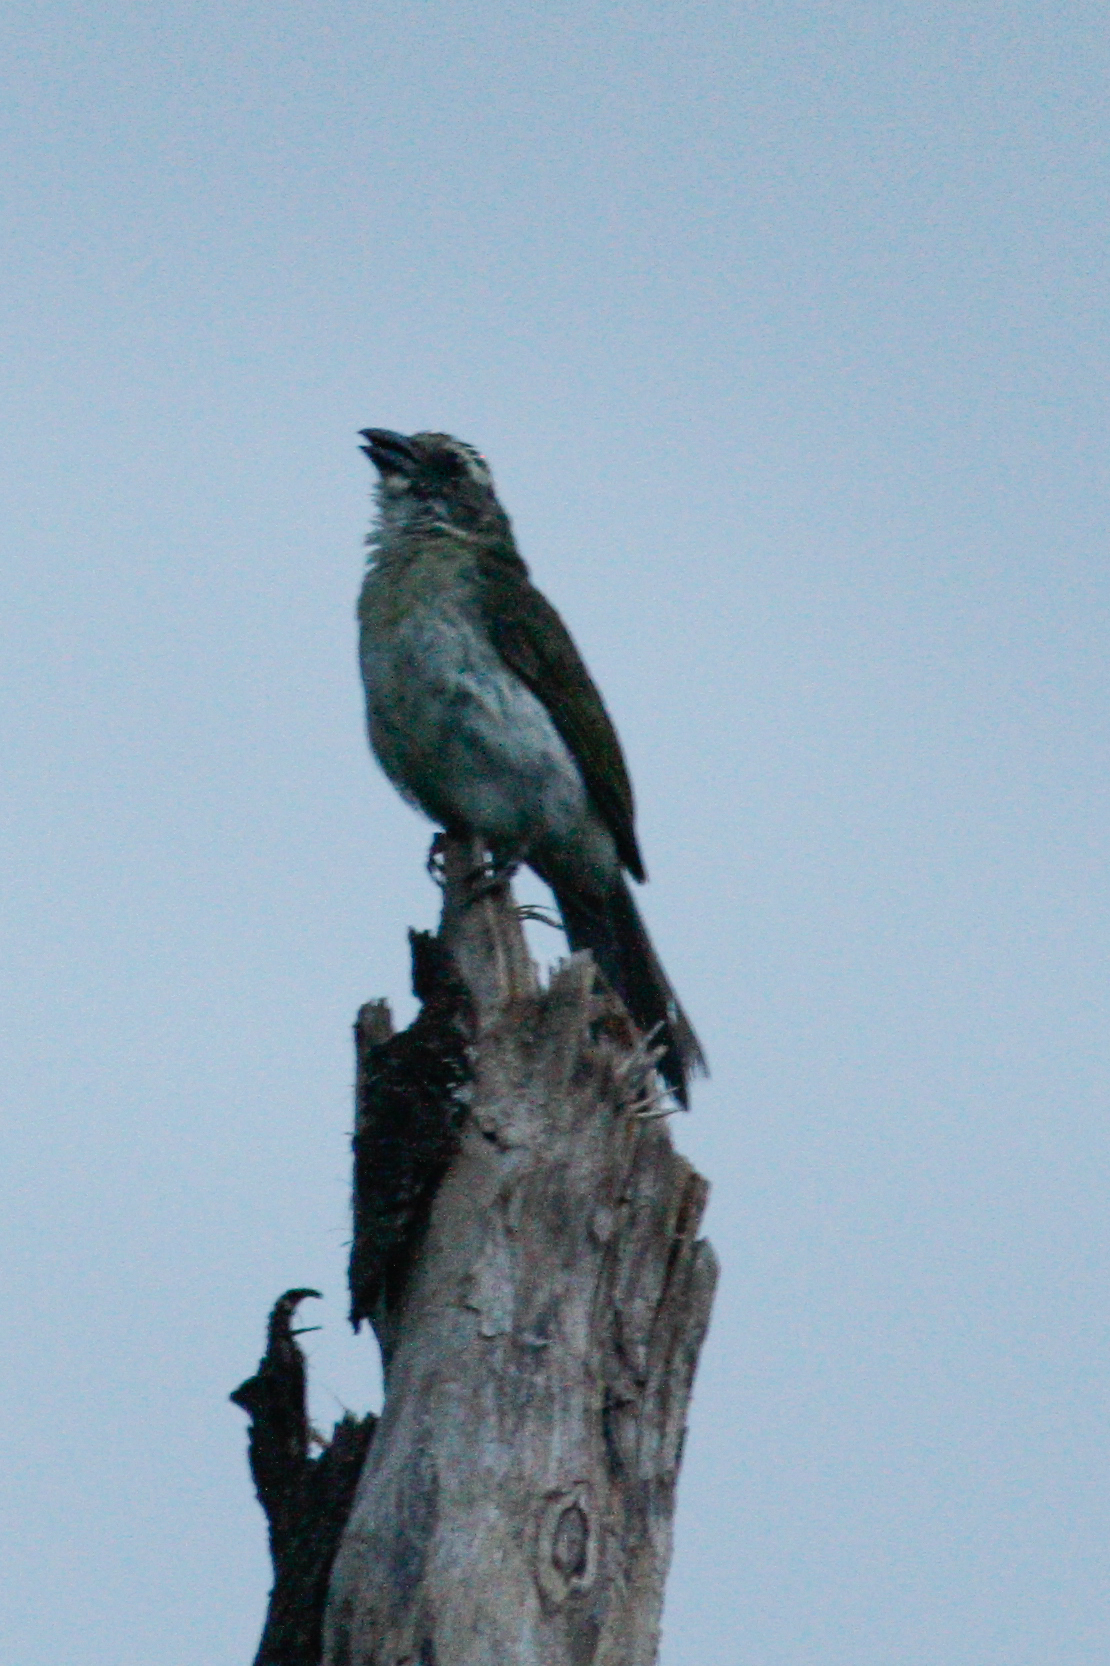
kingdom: Animalia
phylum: Chordata
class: Aves
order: Passeriformes
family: Thraupidae
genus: Saltator
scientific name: Saltator striatipectus
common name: Streaked saltator
